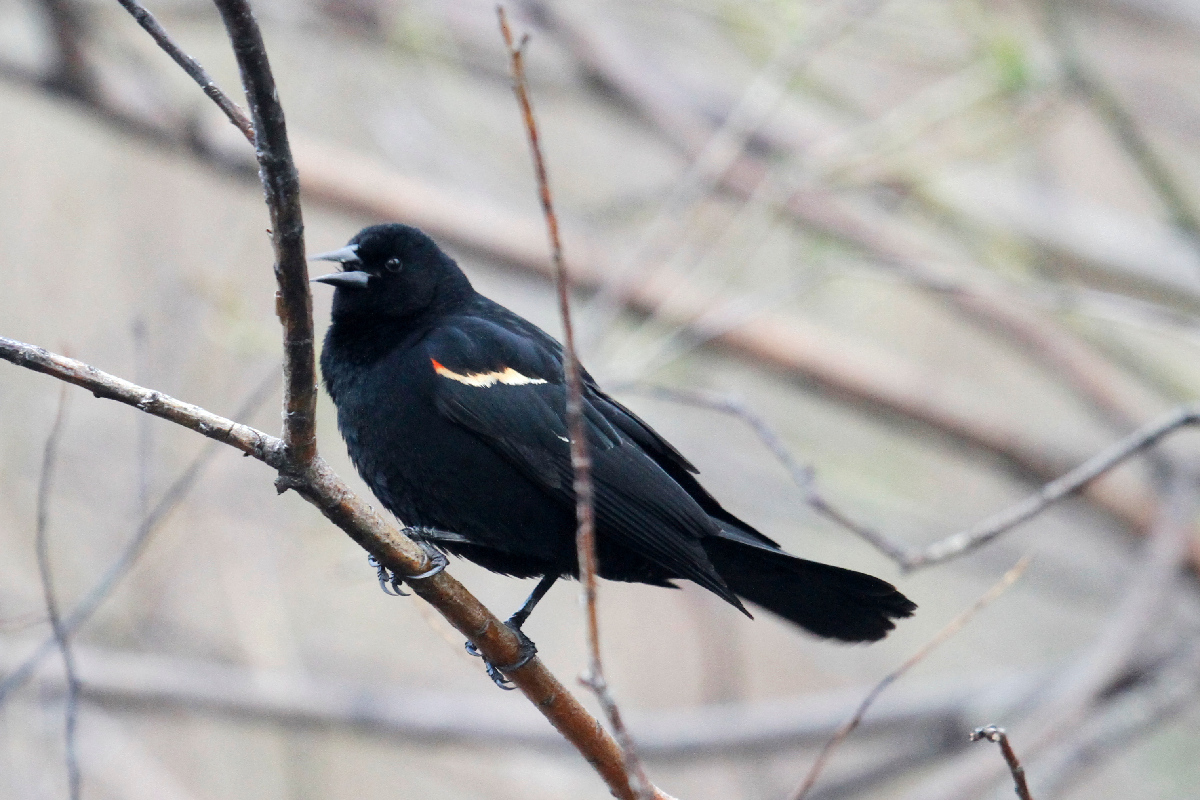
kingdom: Animalia
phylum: Chordata
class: Aves
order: Passeriformes
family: Icteridae
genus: Agelaius
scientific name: Agelaius phoeniceus
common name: Red-winged blackbird
